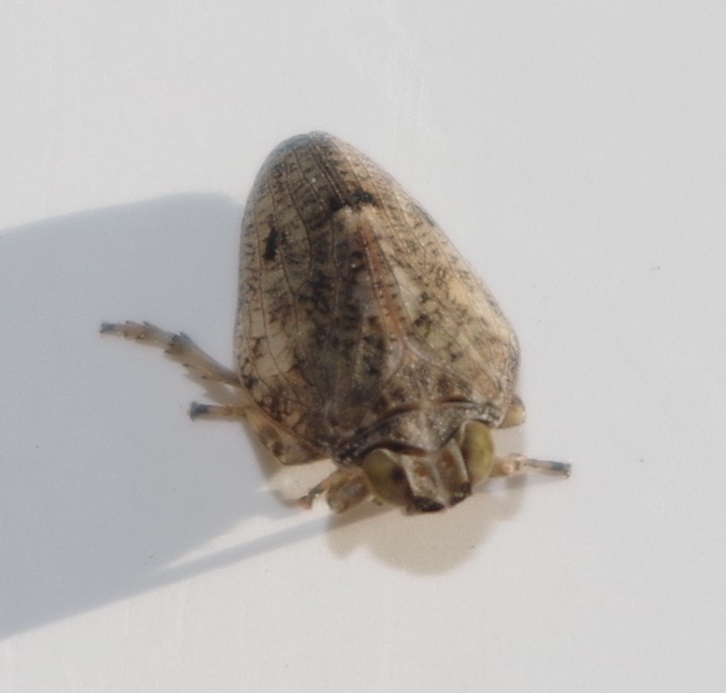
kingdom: Animalia
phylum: Arthropoda
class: Insecta
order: Hemiptera
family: Issidae
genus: Issus
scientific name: Issus coleoptratus
